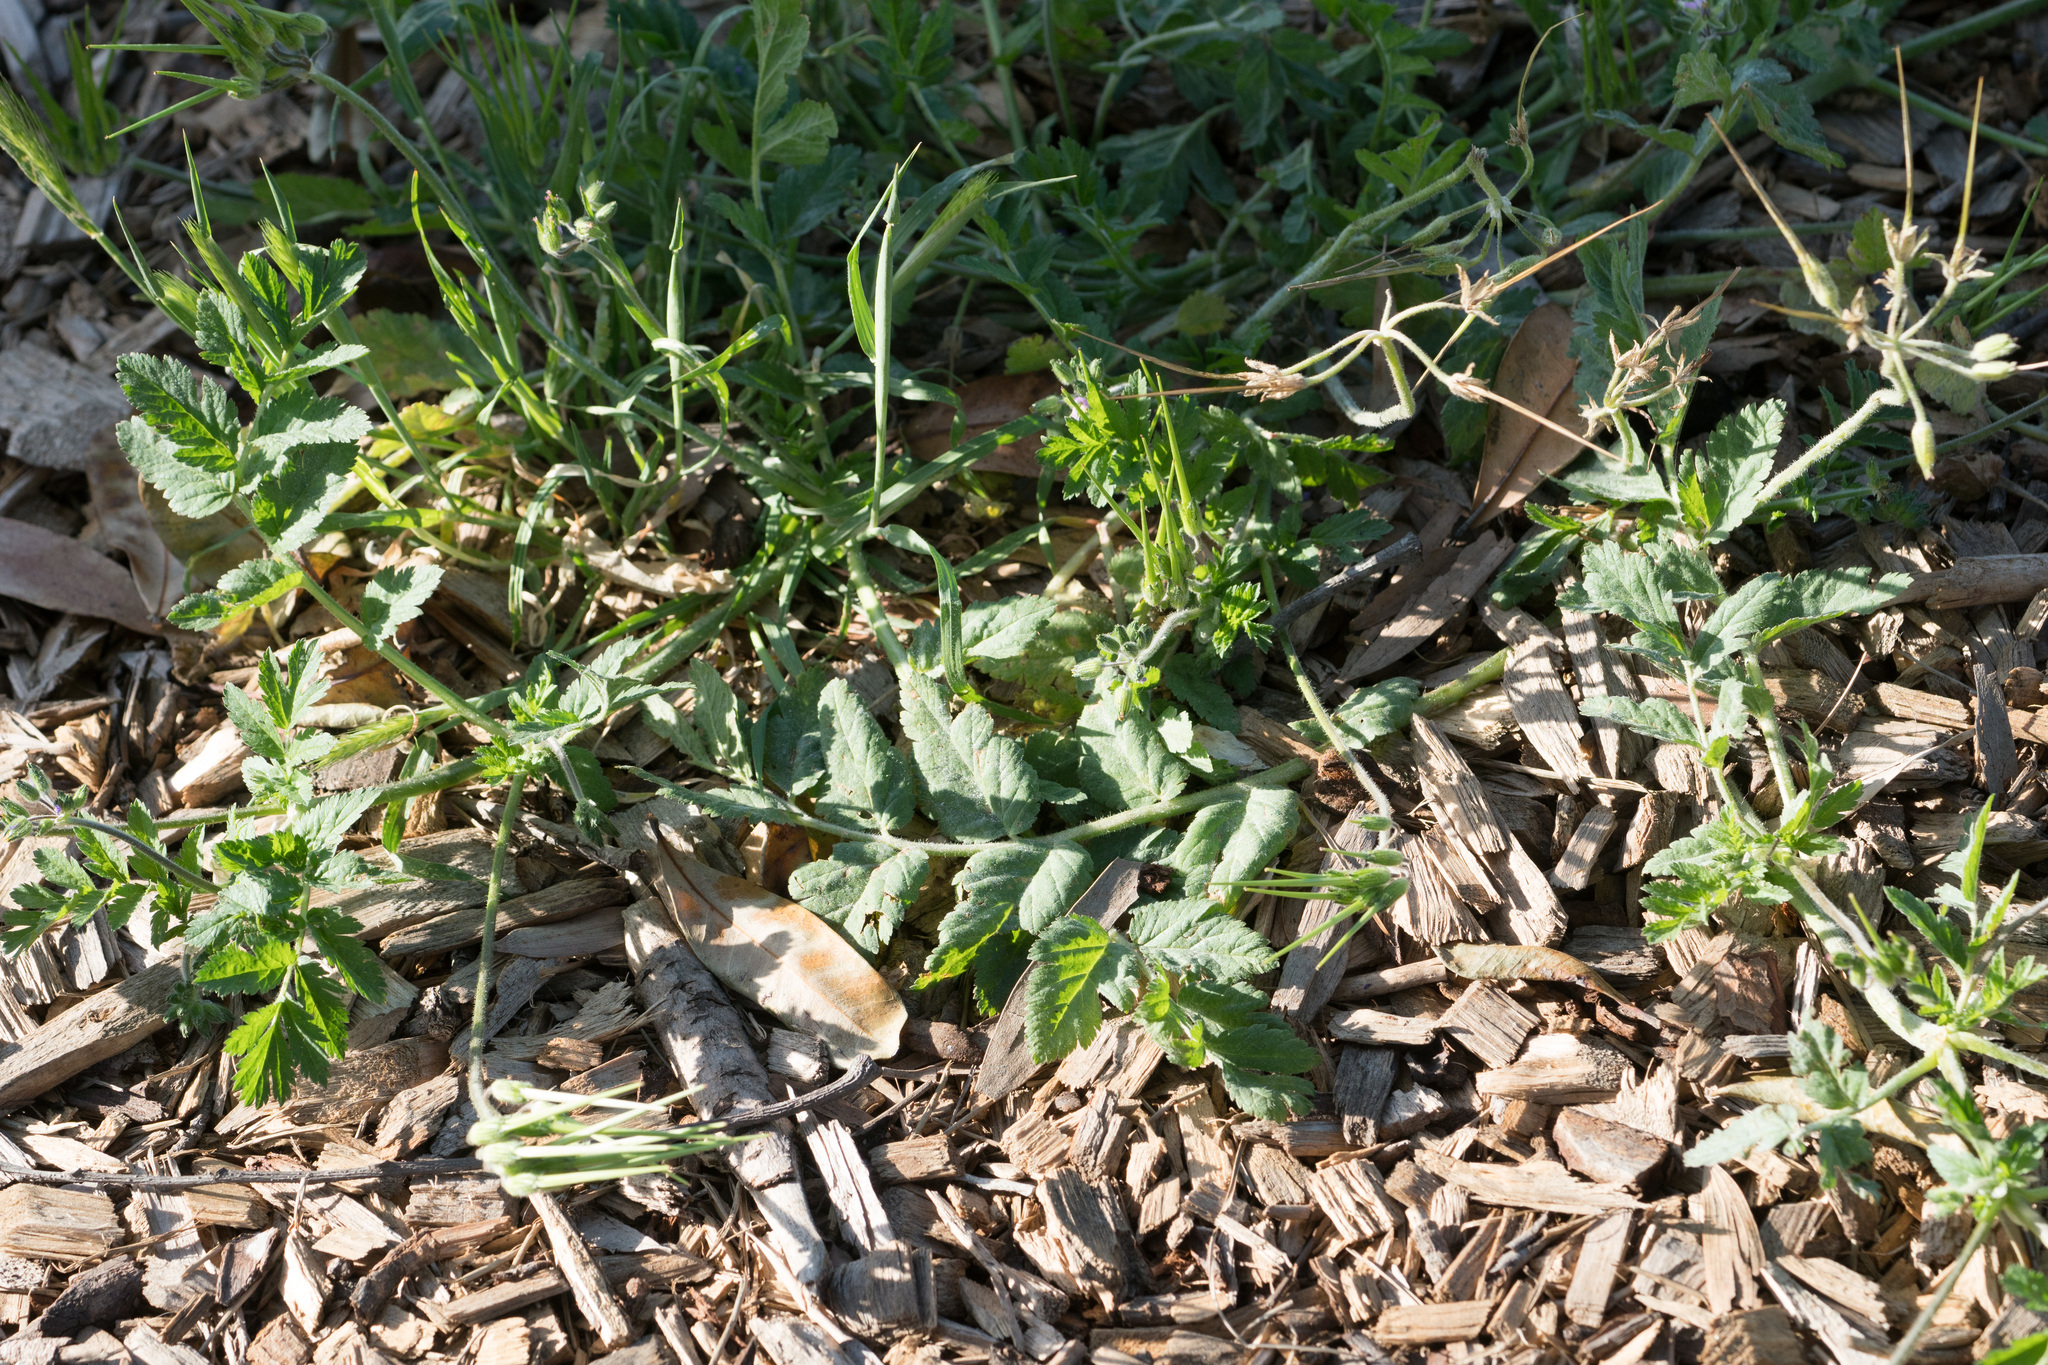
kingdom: Plantae
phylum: Tracheophyta
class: Magnoliopsida
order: Geraniales
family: Geraniaceae
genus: Erodium
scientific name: Erodium moschatum
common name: Musk stork's-bill
